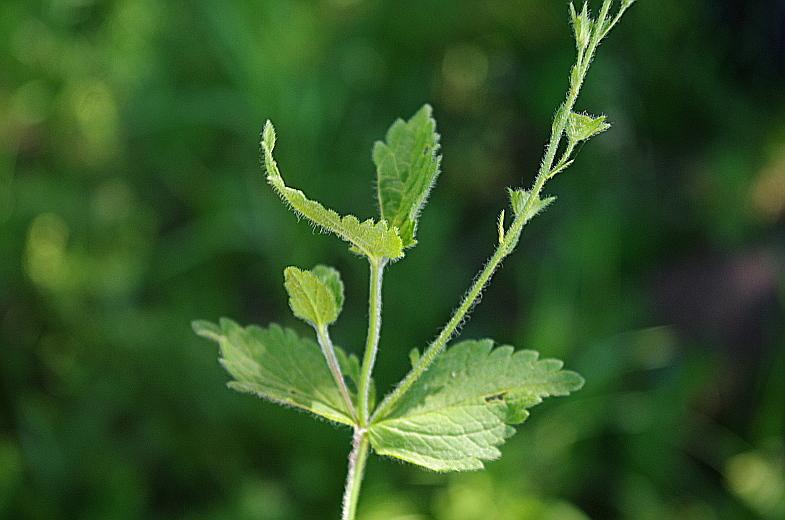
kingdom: Plantae
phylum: Tracheophyta
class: Magnoliopsida
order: Lamiales
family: Plantaginaceae
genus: Veronica
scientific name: Veronica chamaedrys
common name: Germander speedwell
